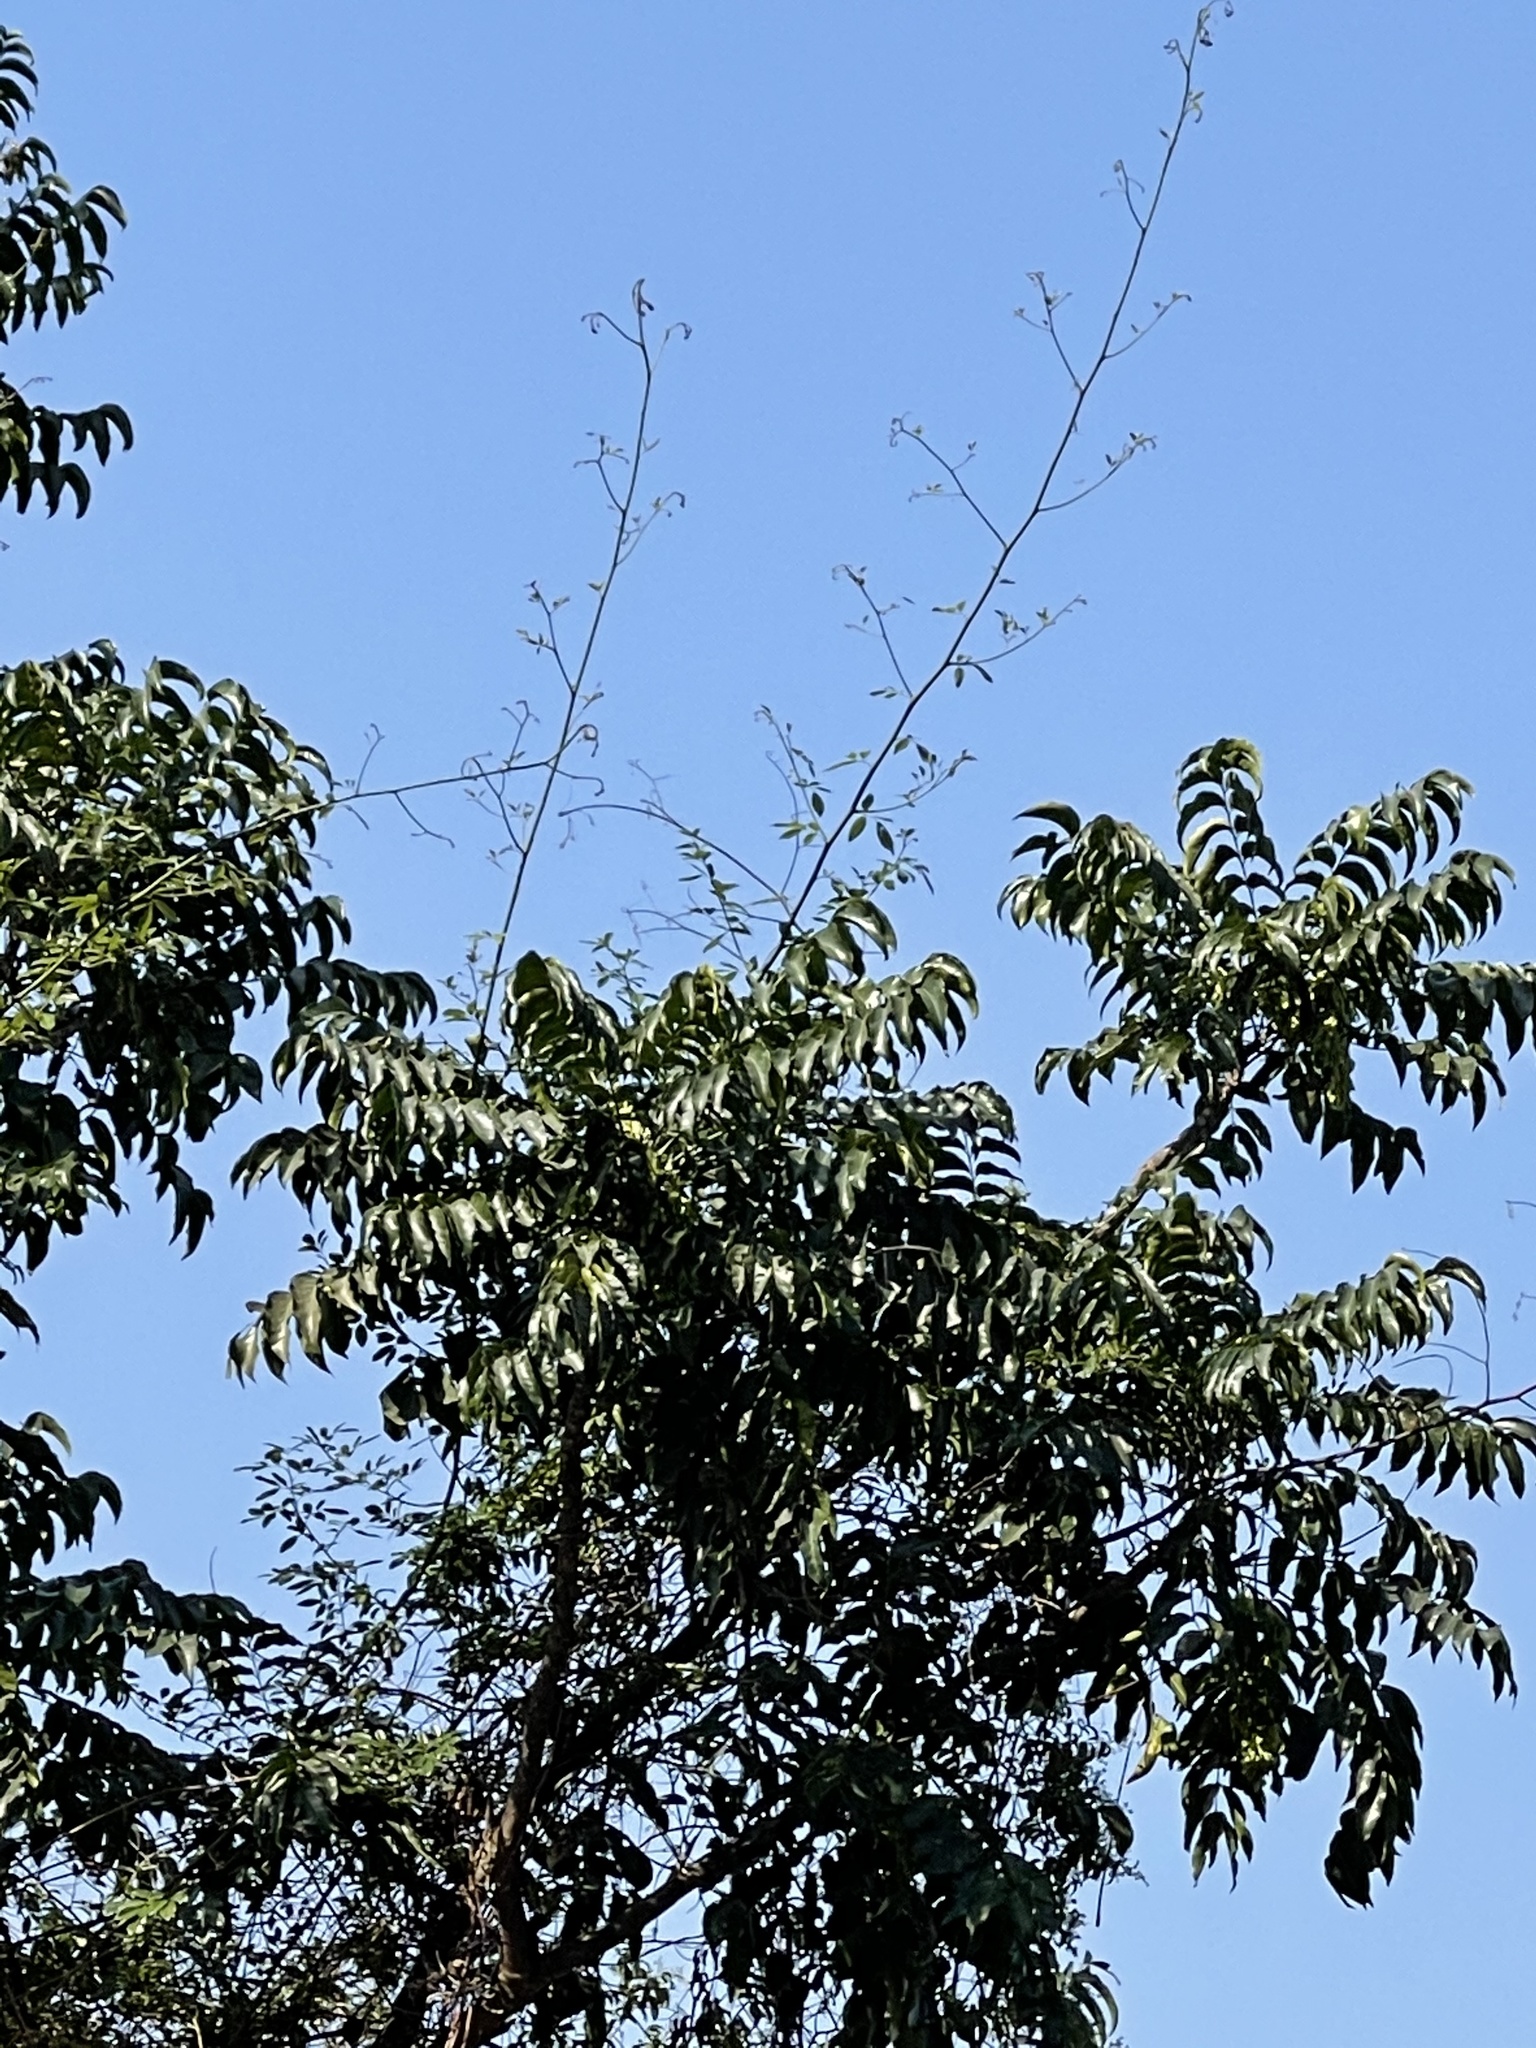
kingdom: Plantae
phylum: Tracheophyta
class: Magnoliopsida
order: Sapindales
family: Simaroubaceae
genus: Ailanthus
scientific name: Ailanthus fordii
